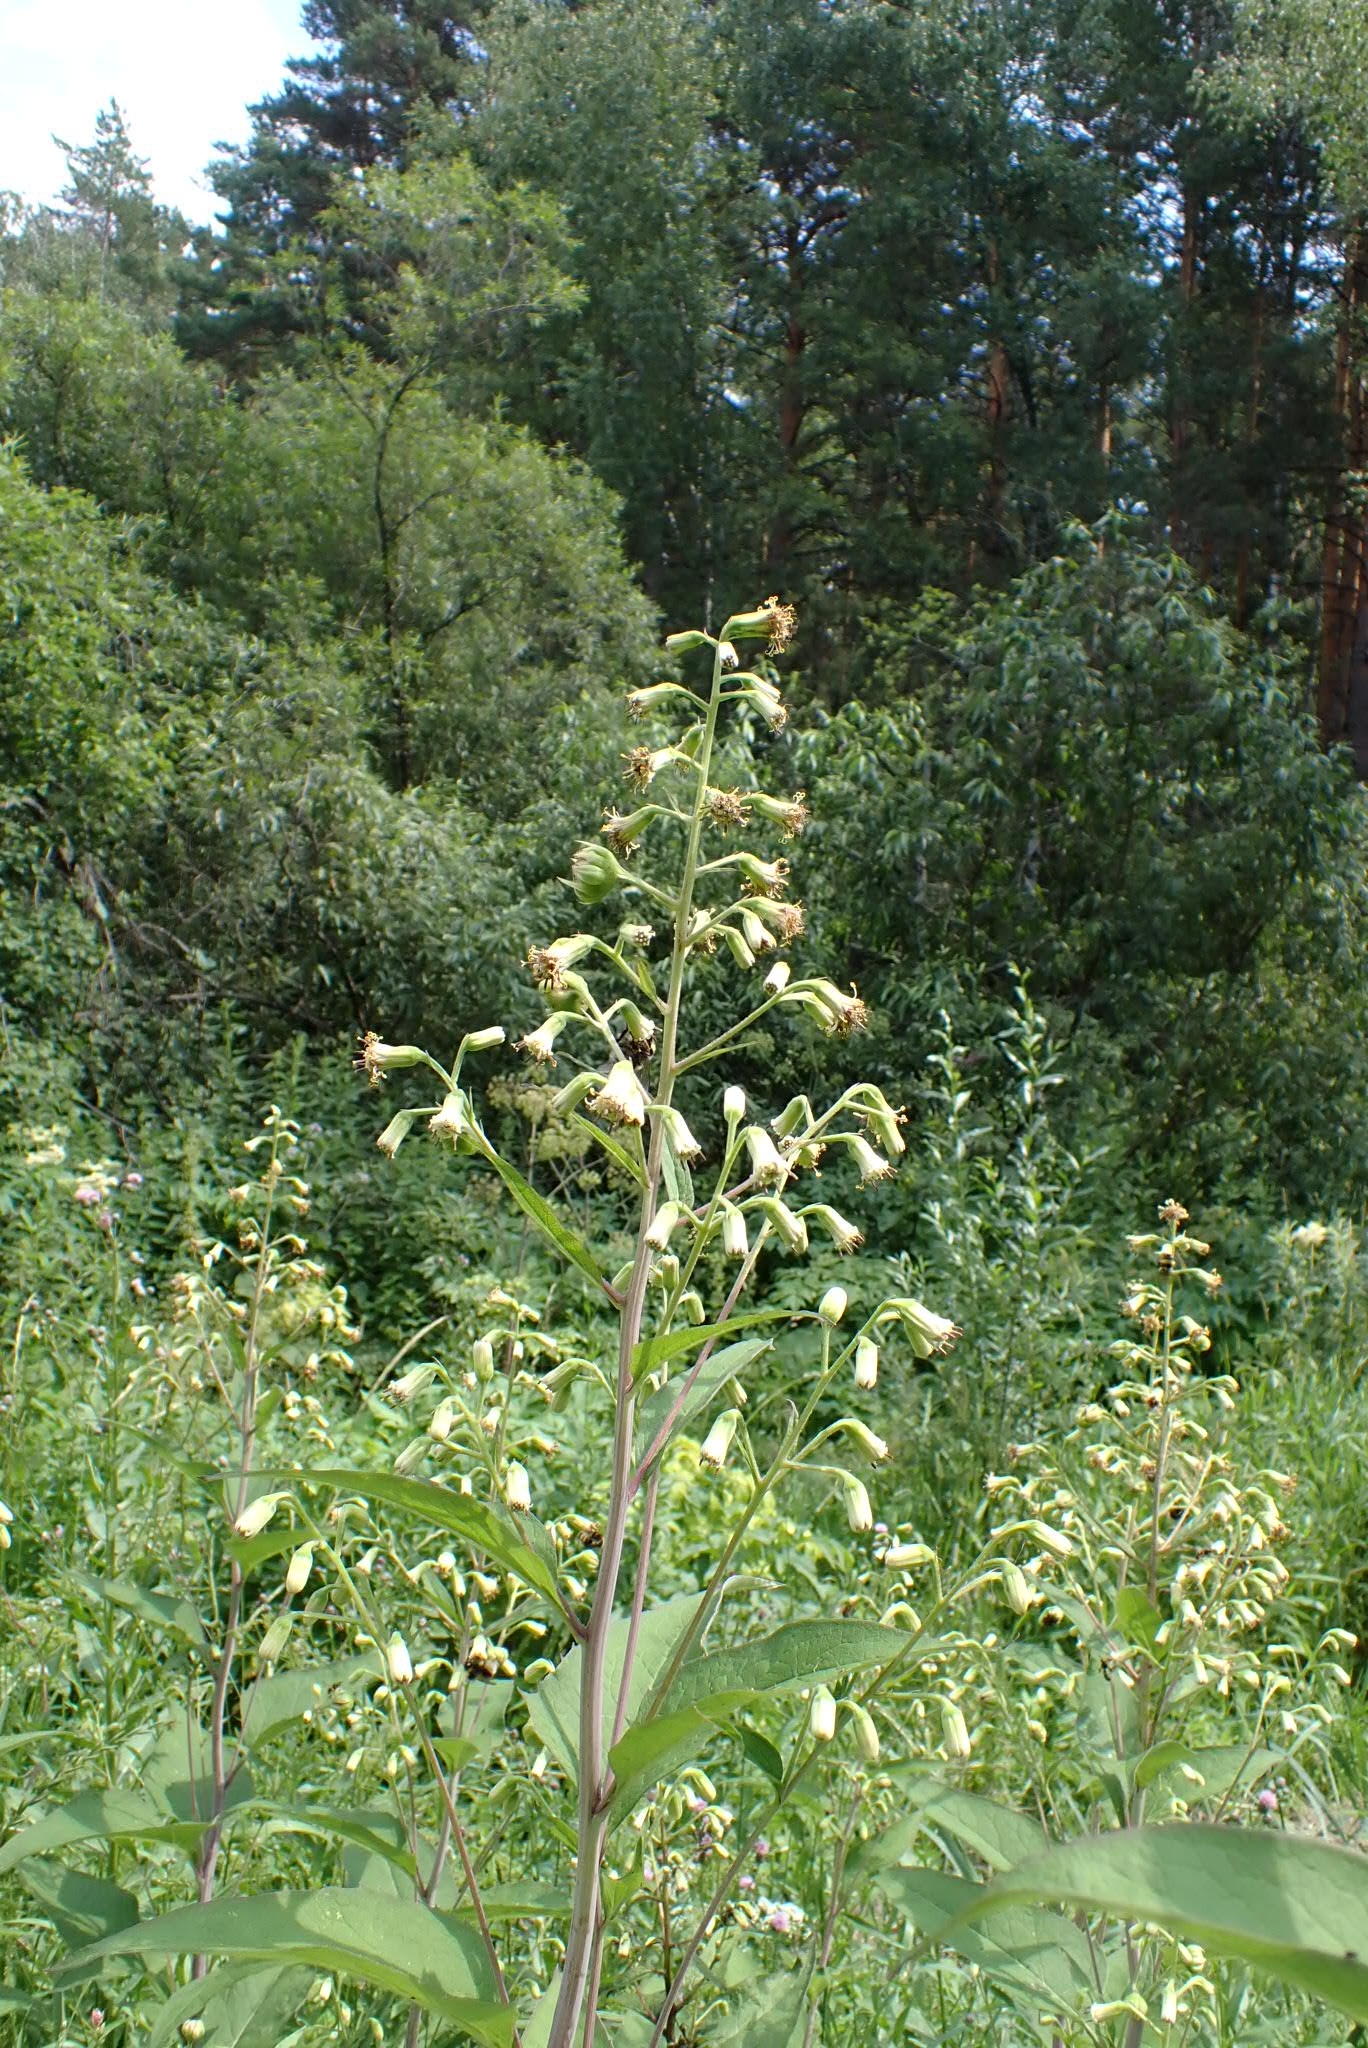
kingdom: Plantae
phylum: Tracheophyta
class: Magnoliopsida
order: Asterales
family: Asteraceae
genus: Parasenecio
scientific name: Parasenecio hastatus
